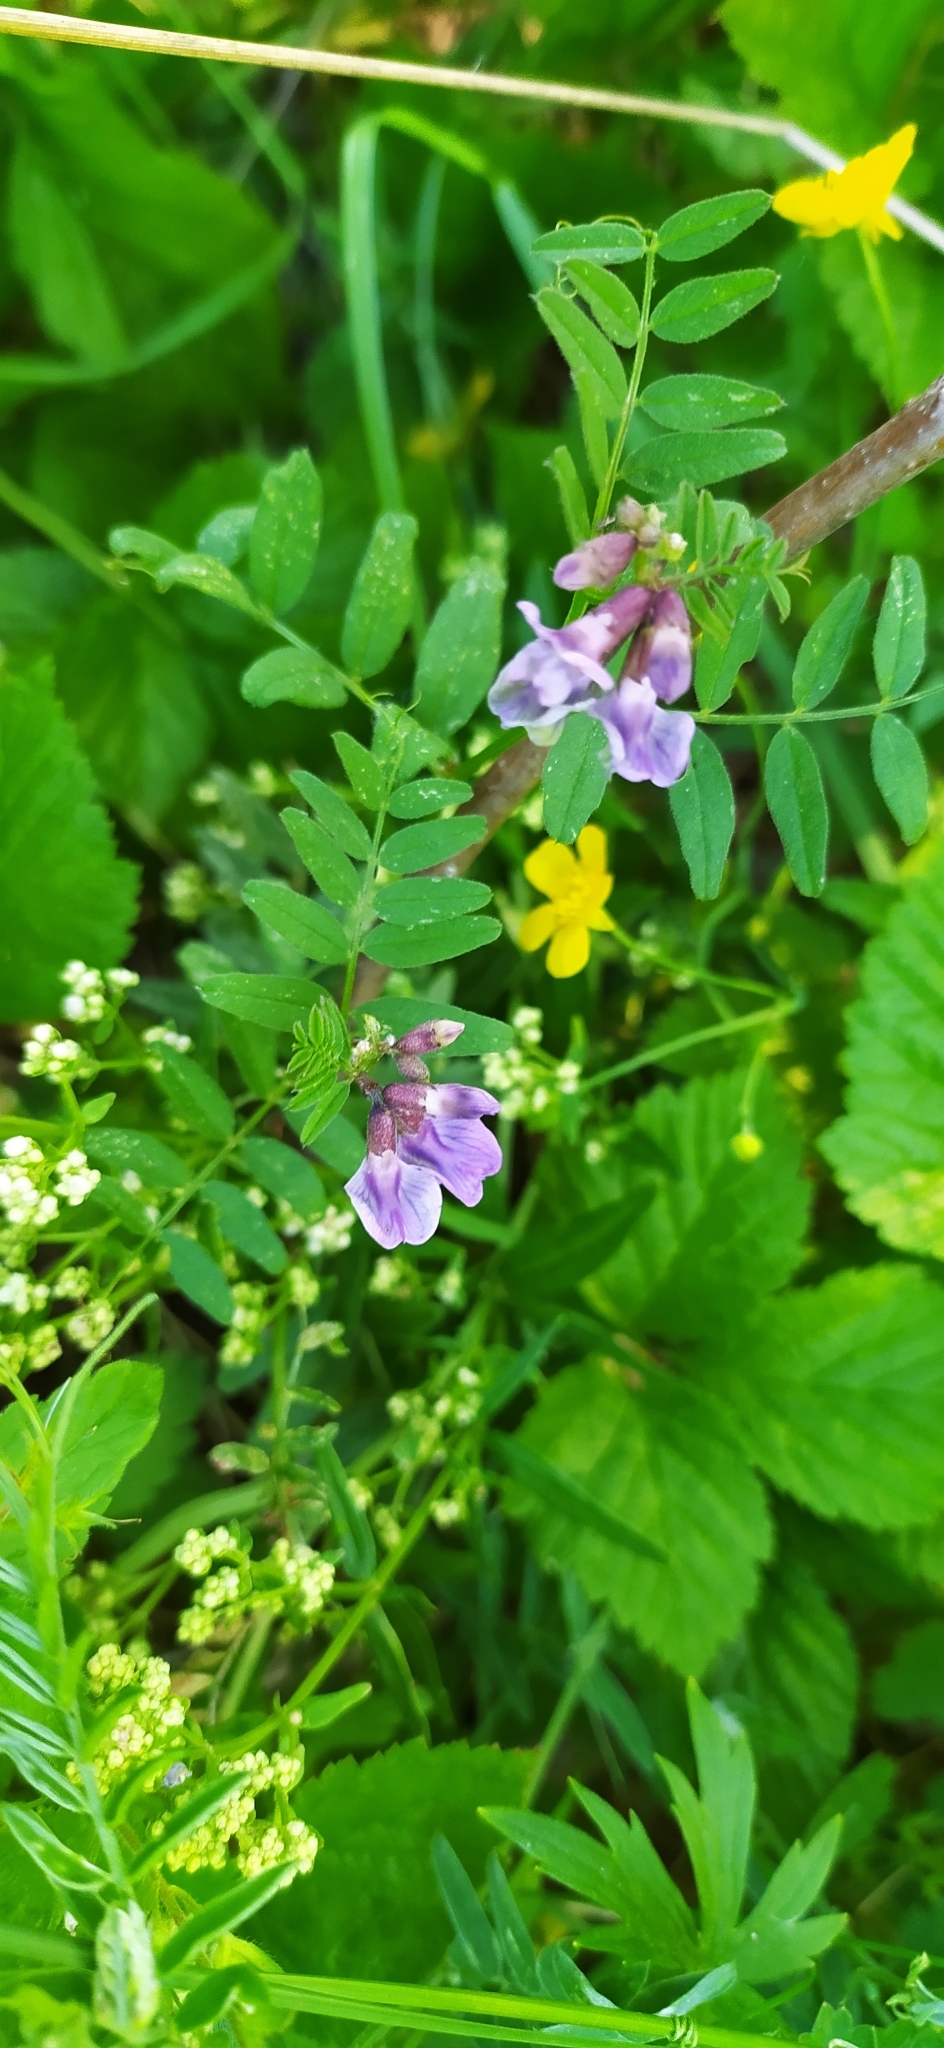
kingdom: Plantae
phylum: Tracheophyta
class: Magnoliopsida
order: Fabales
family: Fabaceae
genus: Vicia
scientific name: Vicia sepium
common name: Bush vetch
